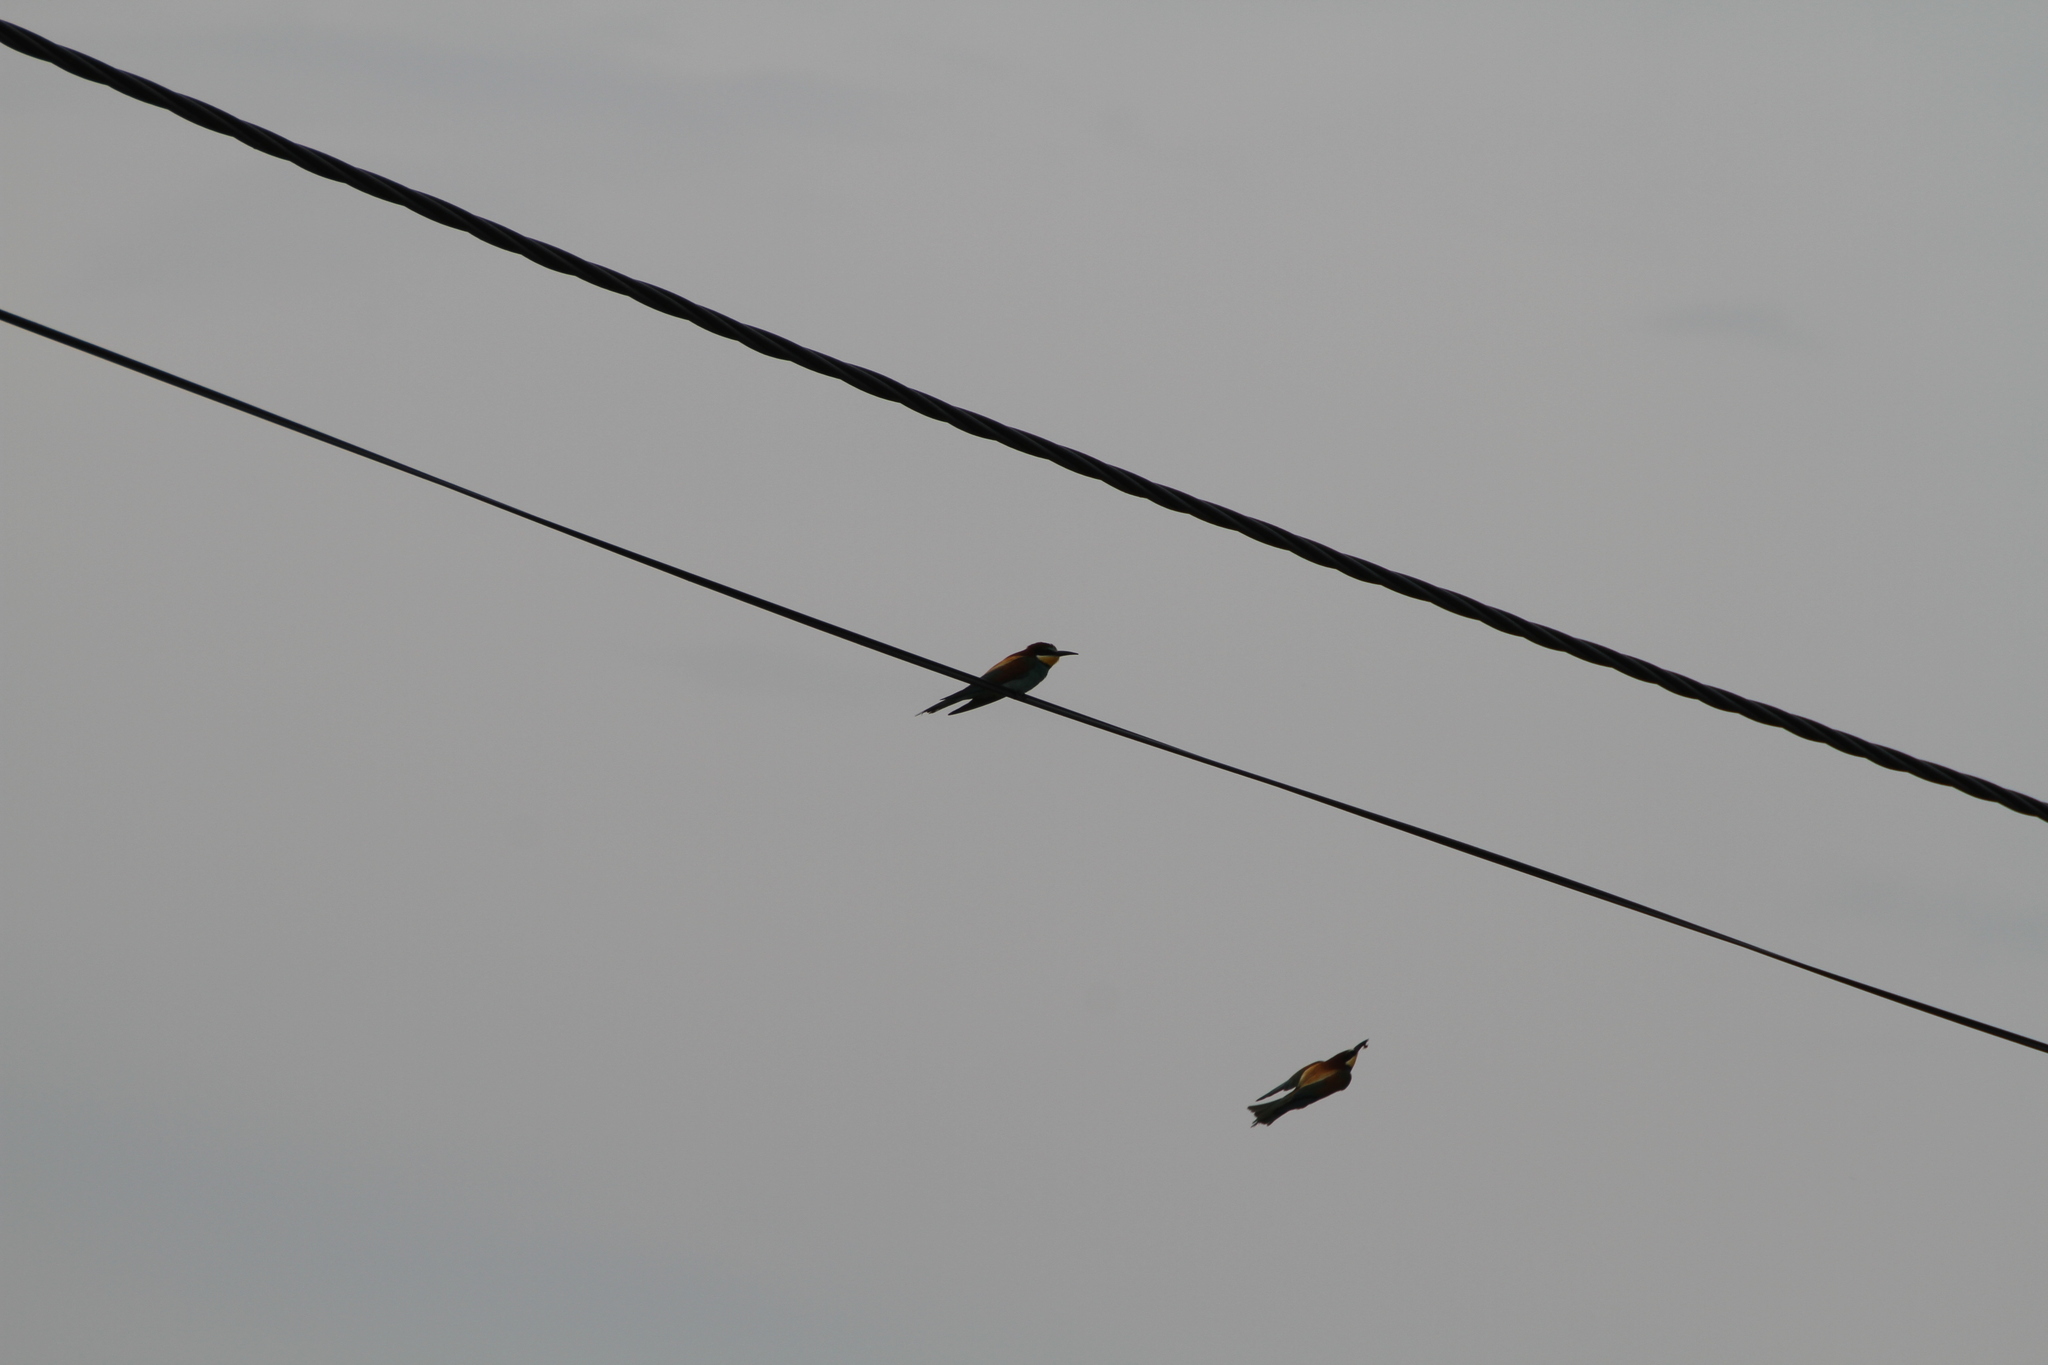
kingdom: Animalia
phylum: Chordata
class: Aves
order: Coraciiformes
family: Meropidae
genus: Merops
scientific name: Merops apiaster
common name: European bee-eater
